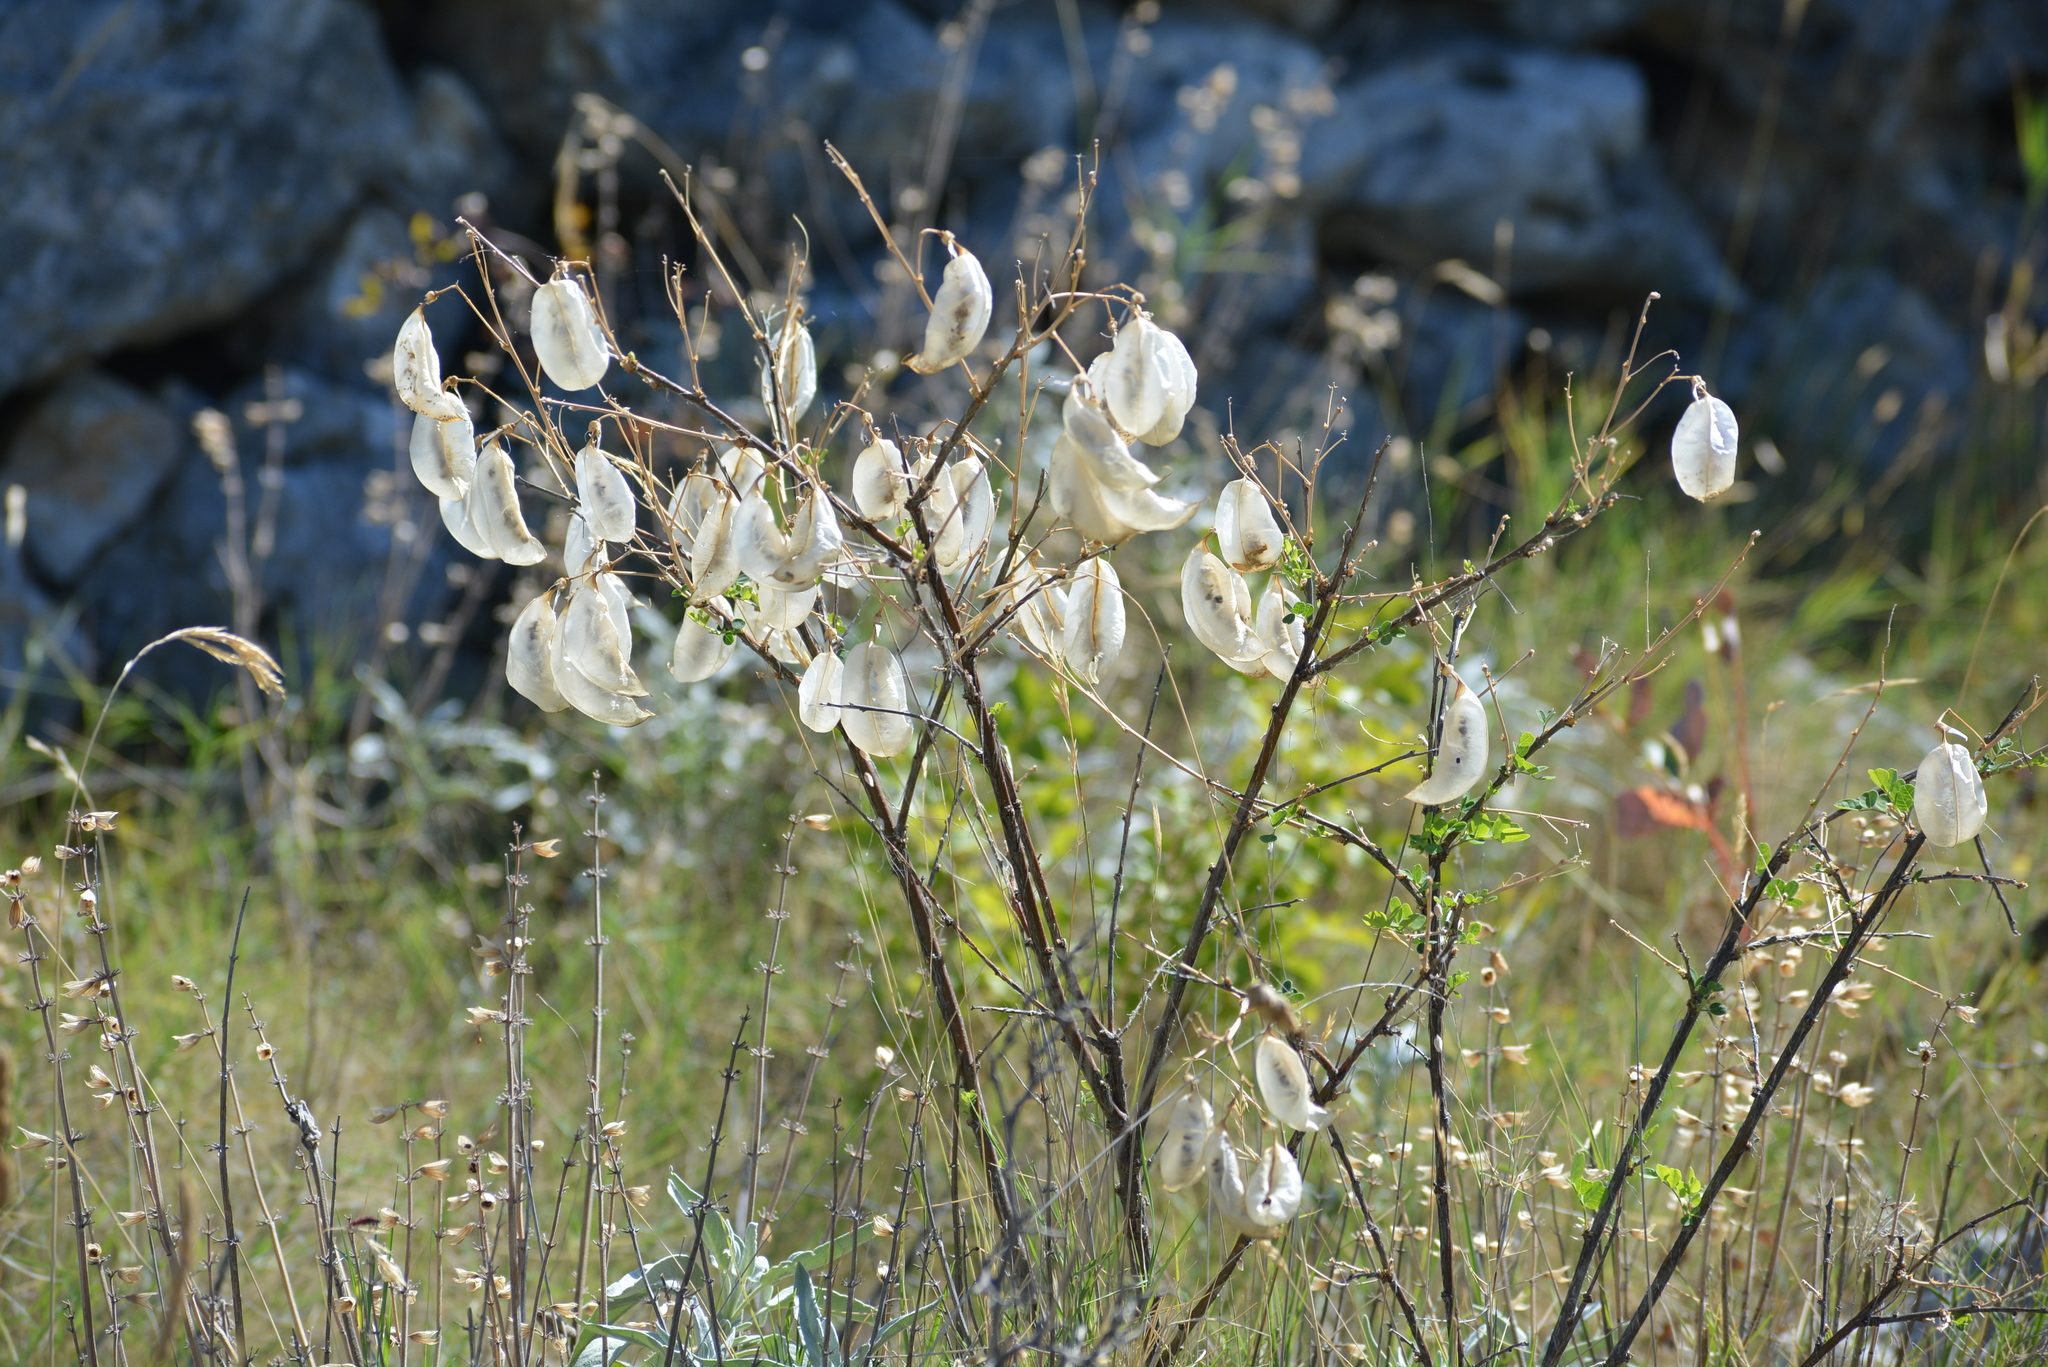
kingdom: Plantae
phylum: Tracheophyta
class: Magnoliopsida
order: Fabales
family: Fabaceae
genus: Colutea
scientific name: Colutea arborescens
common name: Bladder-senna
